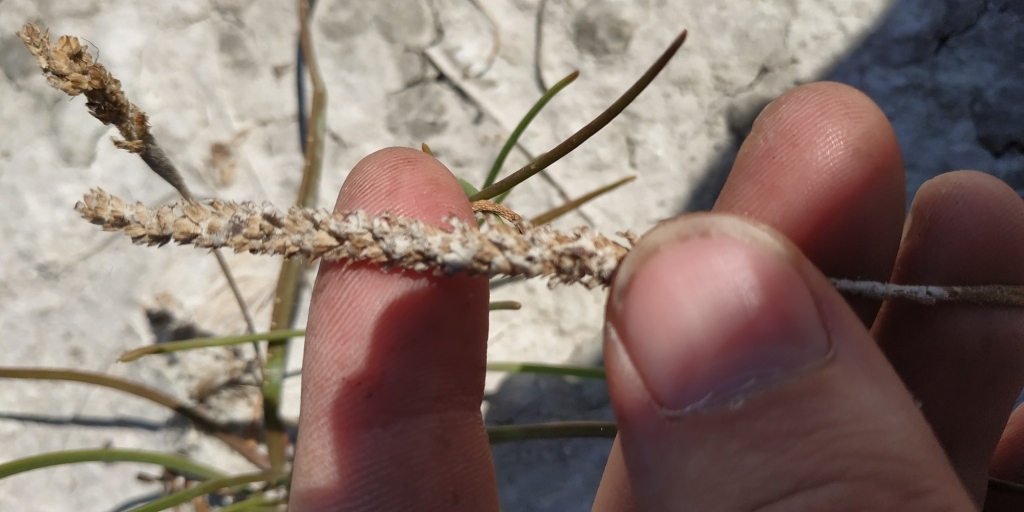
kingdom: Plantae
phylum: Tracheophyta
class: Magnoliopsida
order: Lamiales
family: Plantaginaceae
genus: Plantago
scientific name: Plantago salsa
